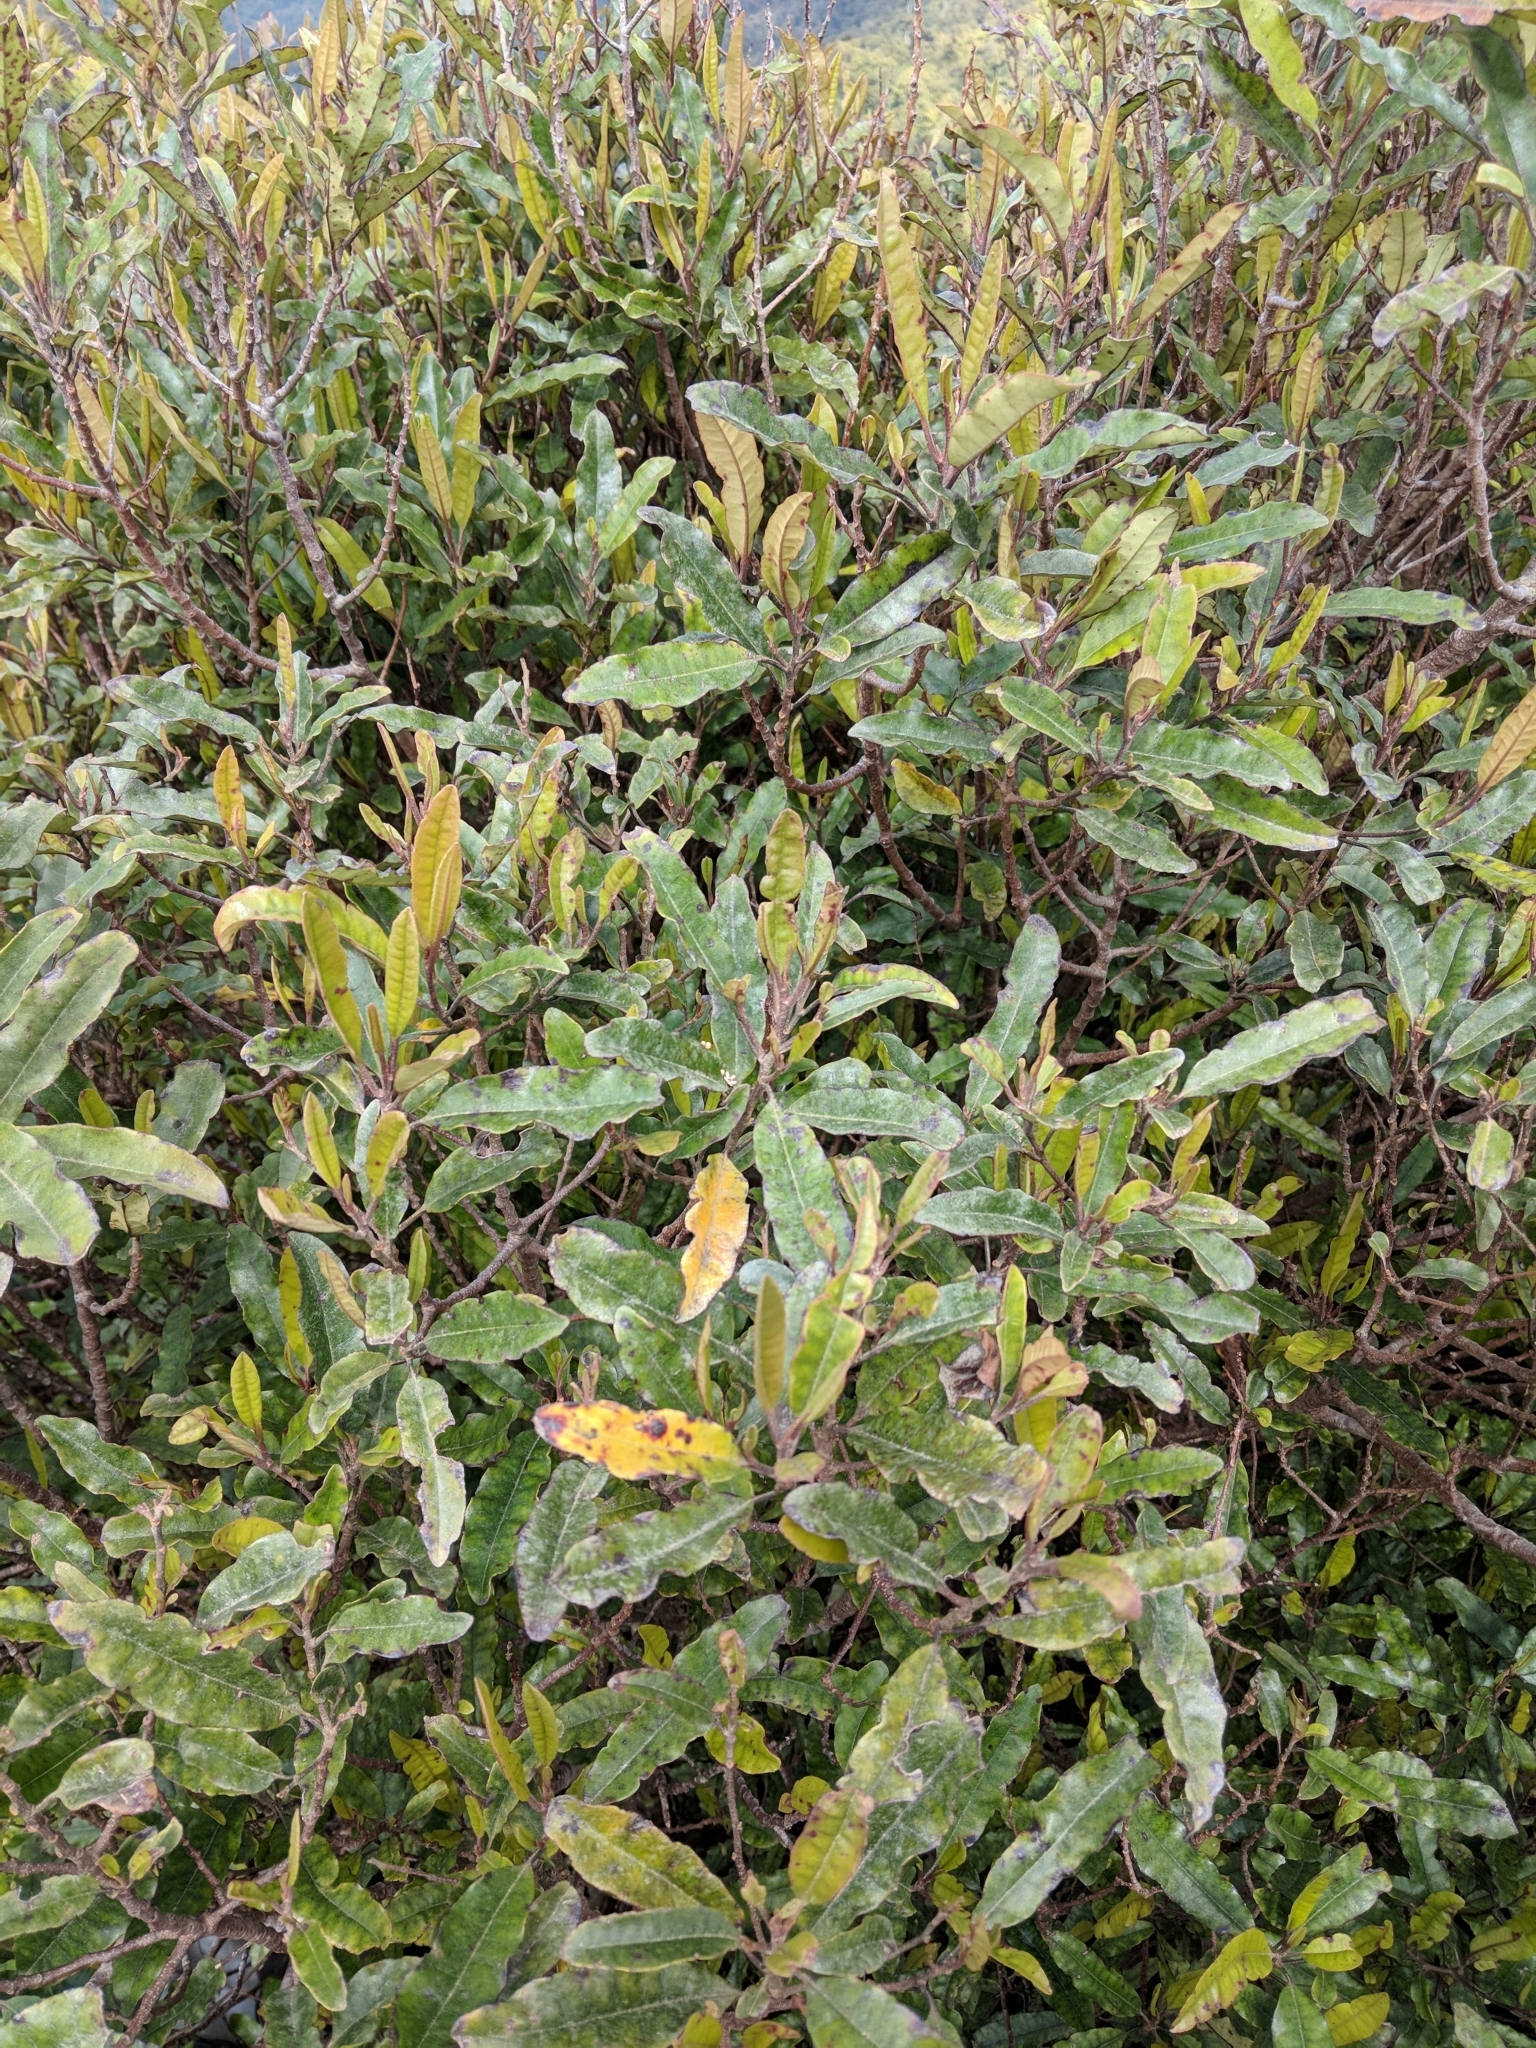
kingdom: Plantae
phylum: Tracheophyta
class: Magnoliopsida
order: Paracryphiales
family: Paracryphiaceae
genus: Quintinia
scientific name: Quintinia serrata
